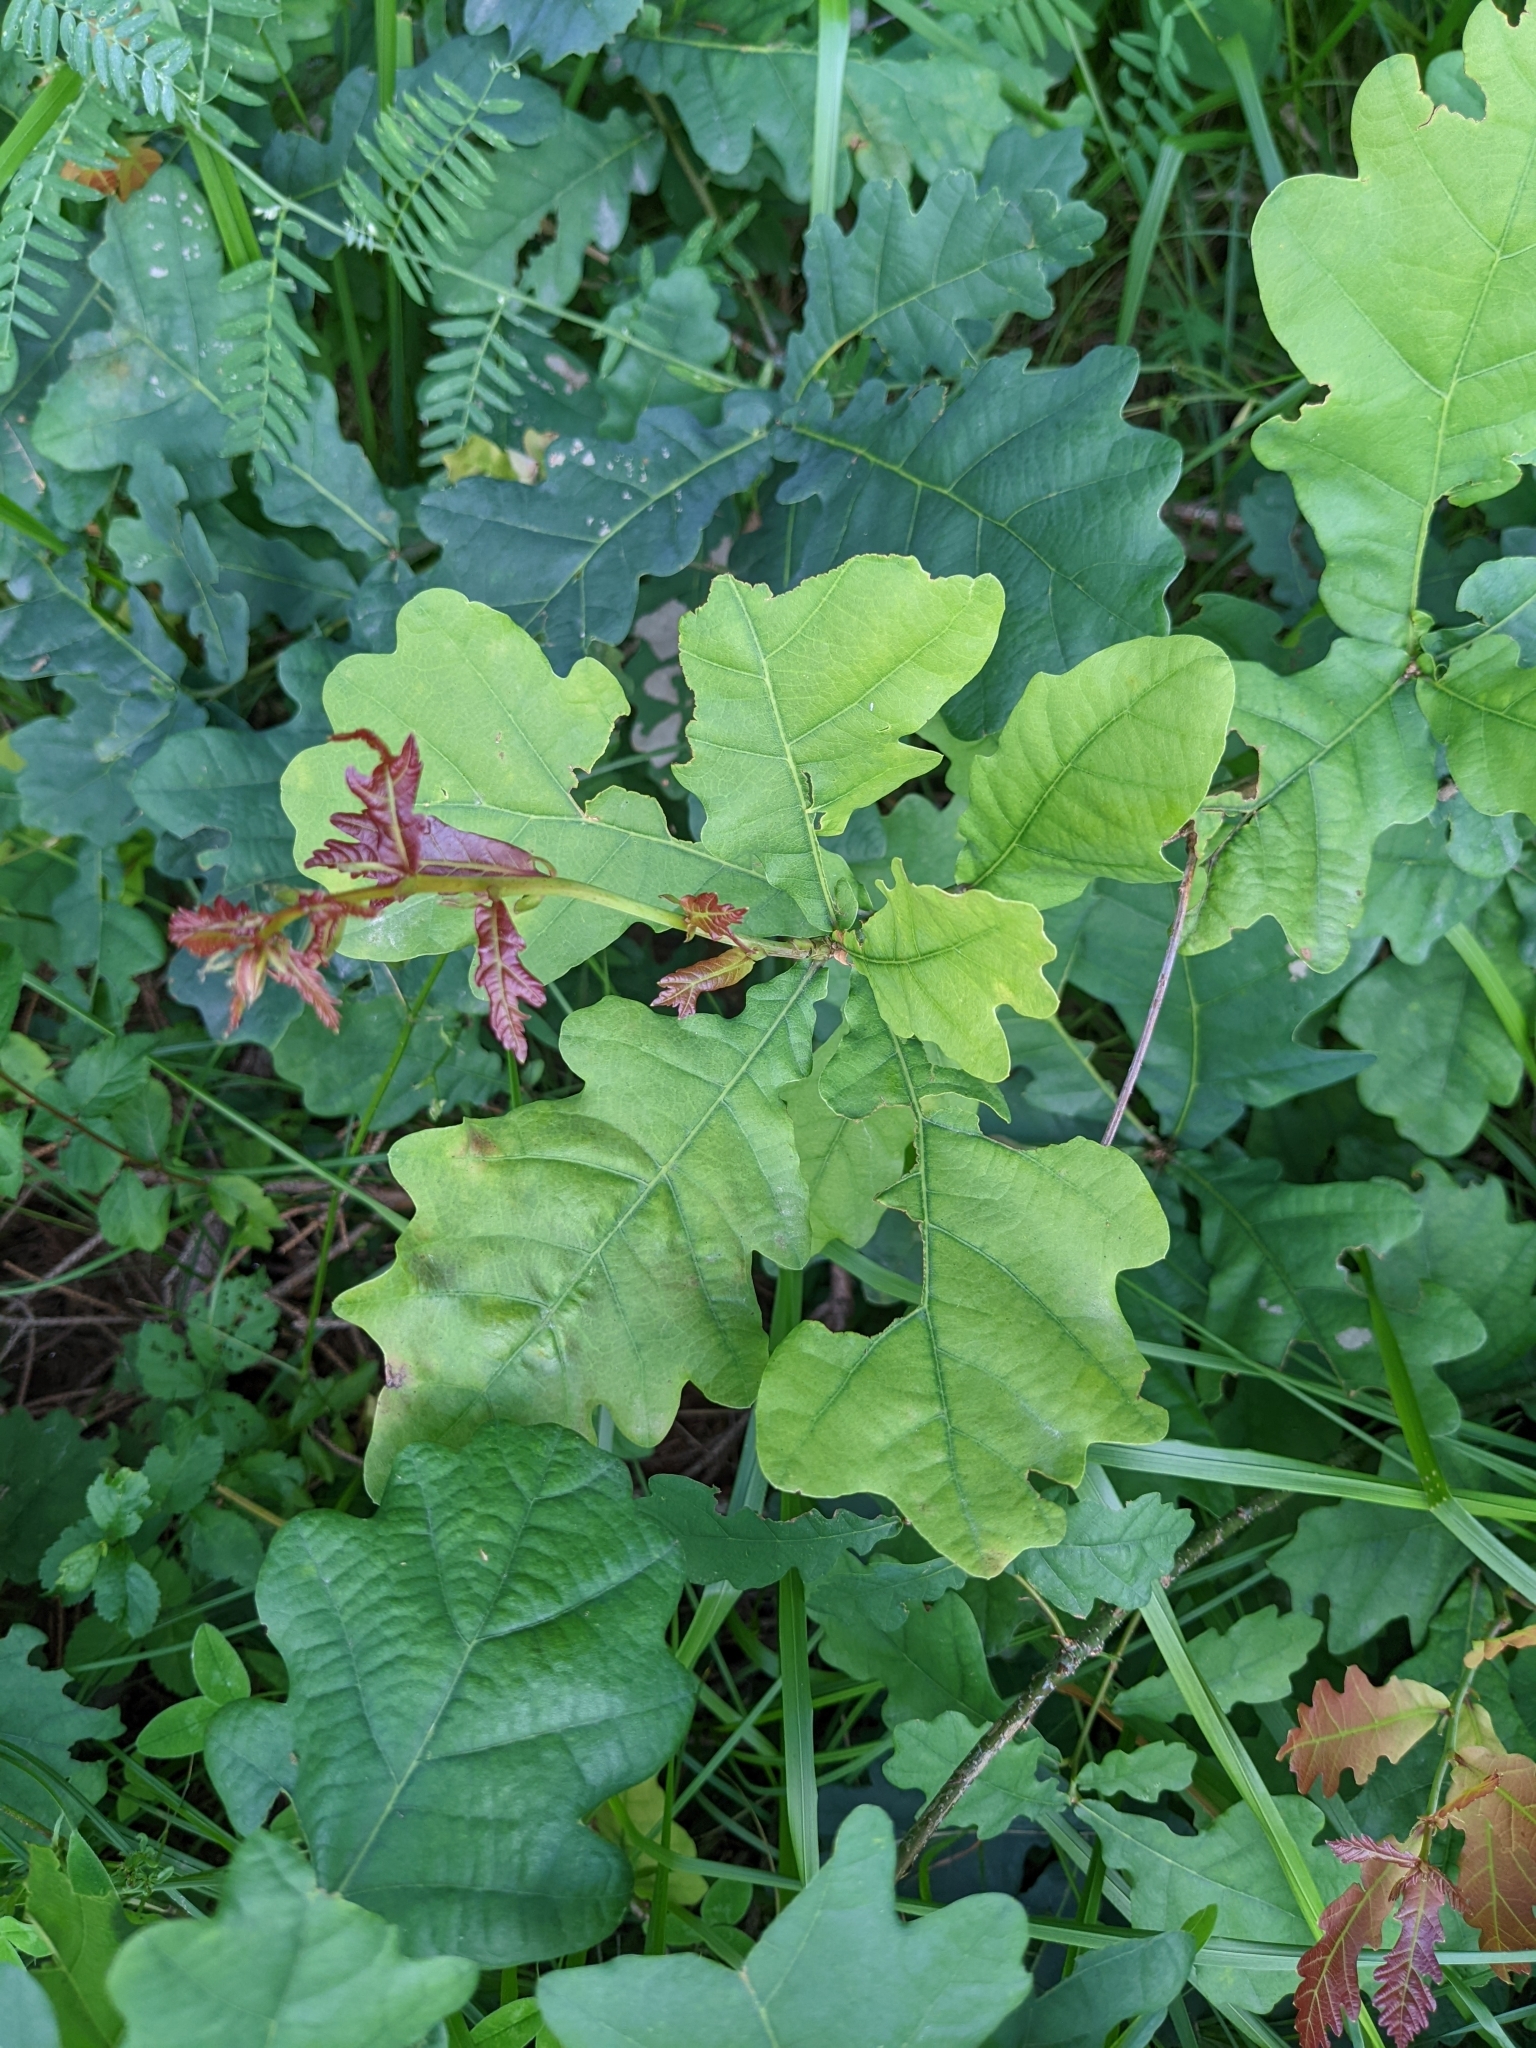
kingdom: Plantae
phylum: Tracheophyta
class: Magnoliopsida
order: Fagales
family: Fagaceae
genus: Quercus
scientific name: Quercus robur
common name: Pedunculate oak
